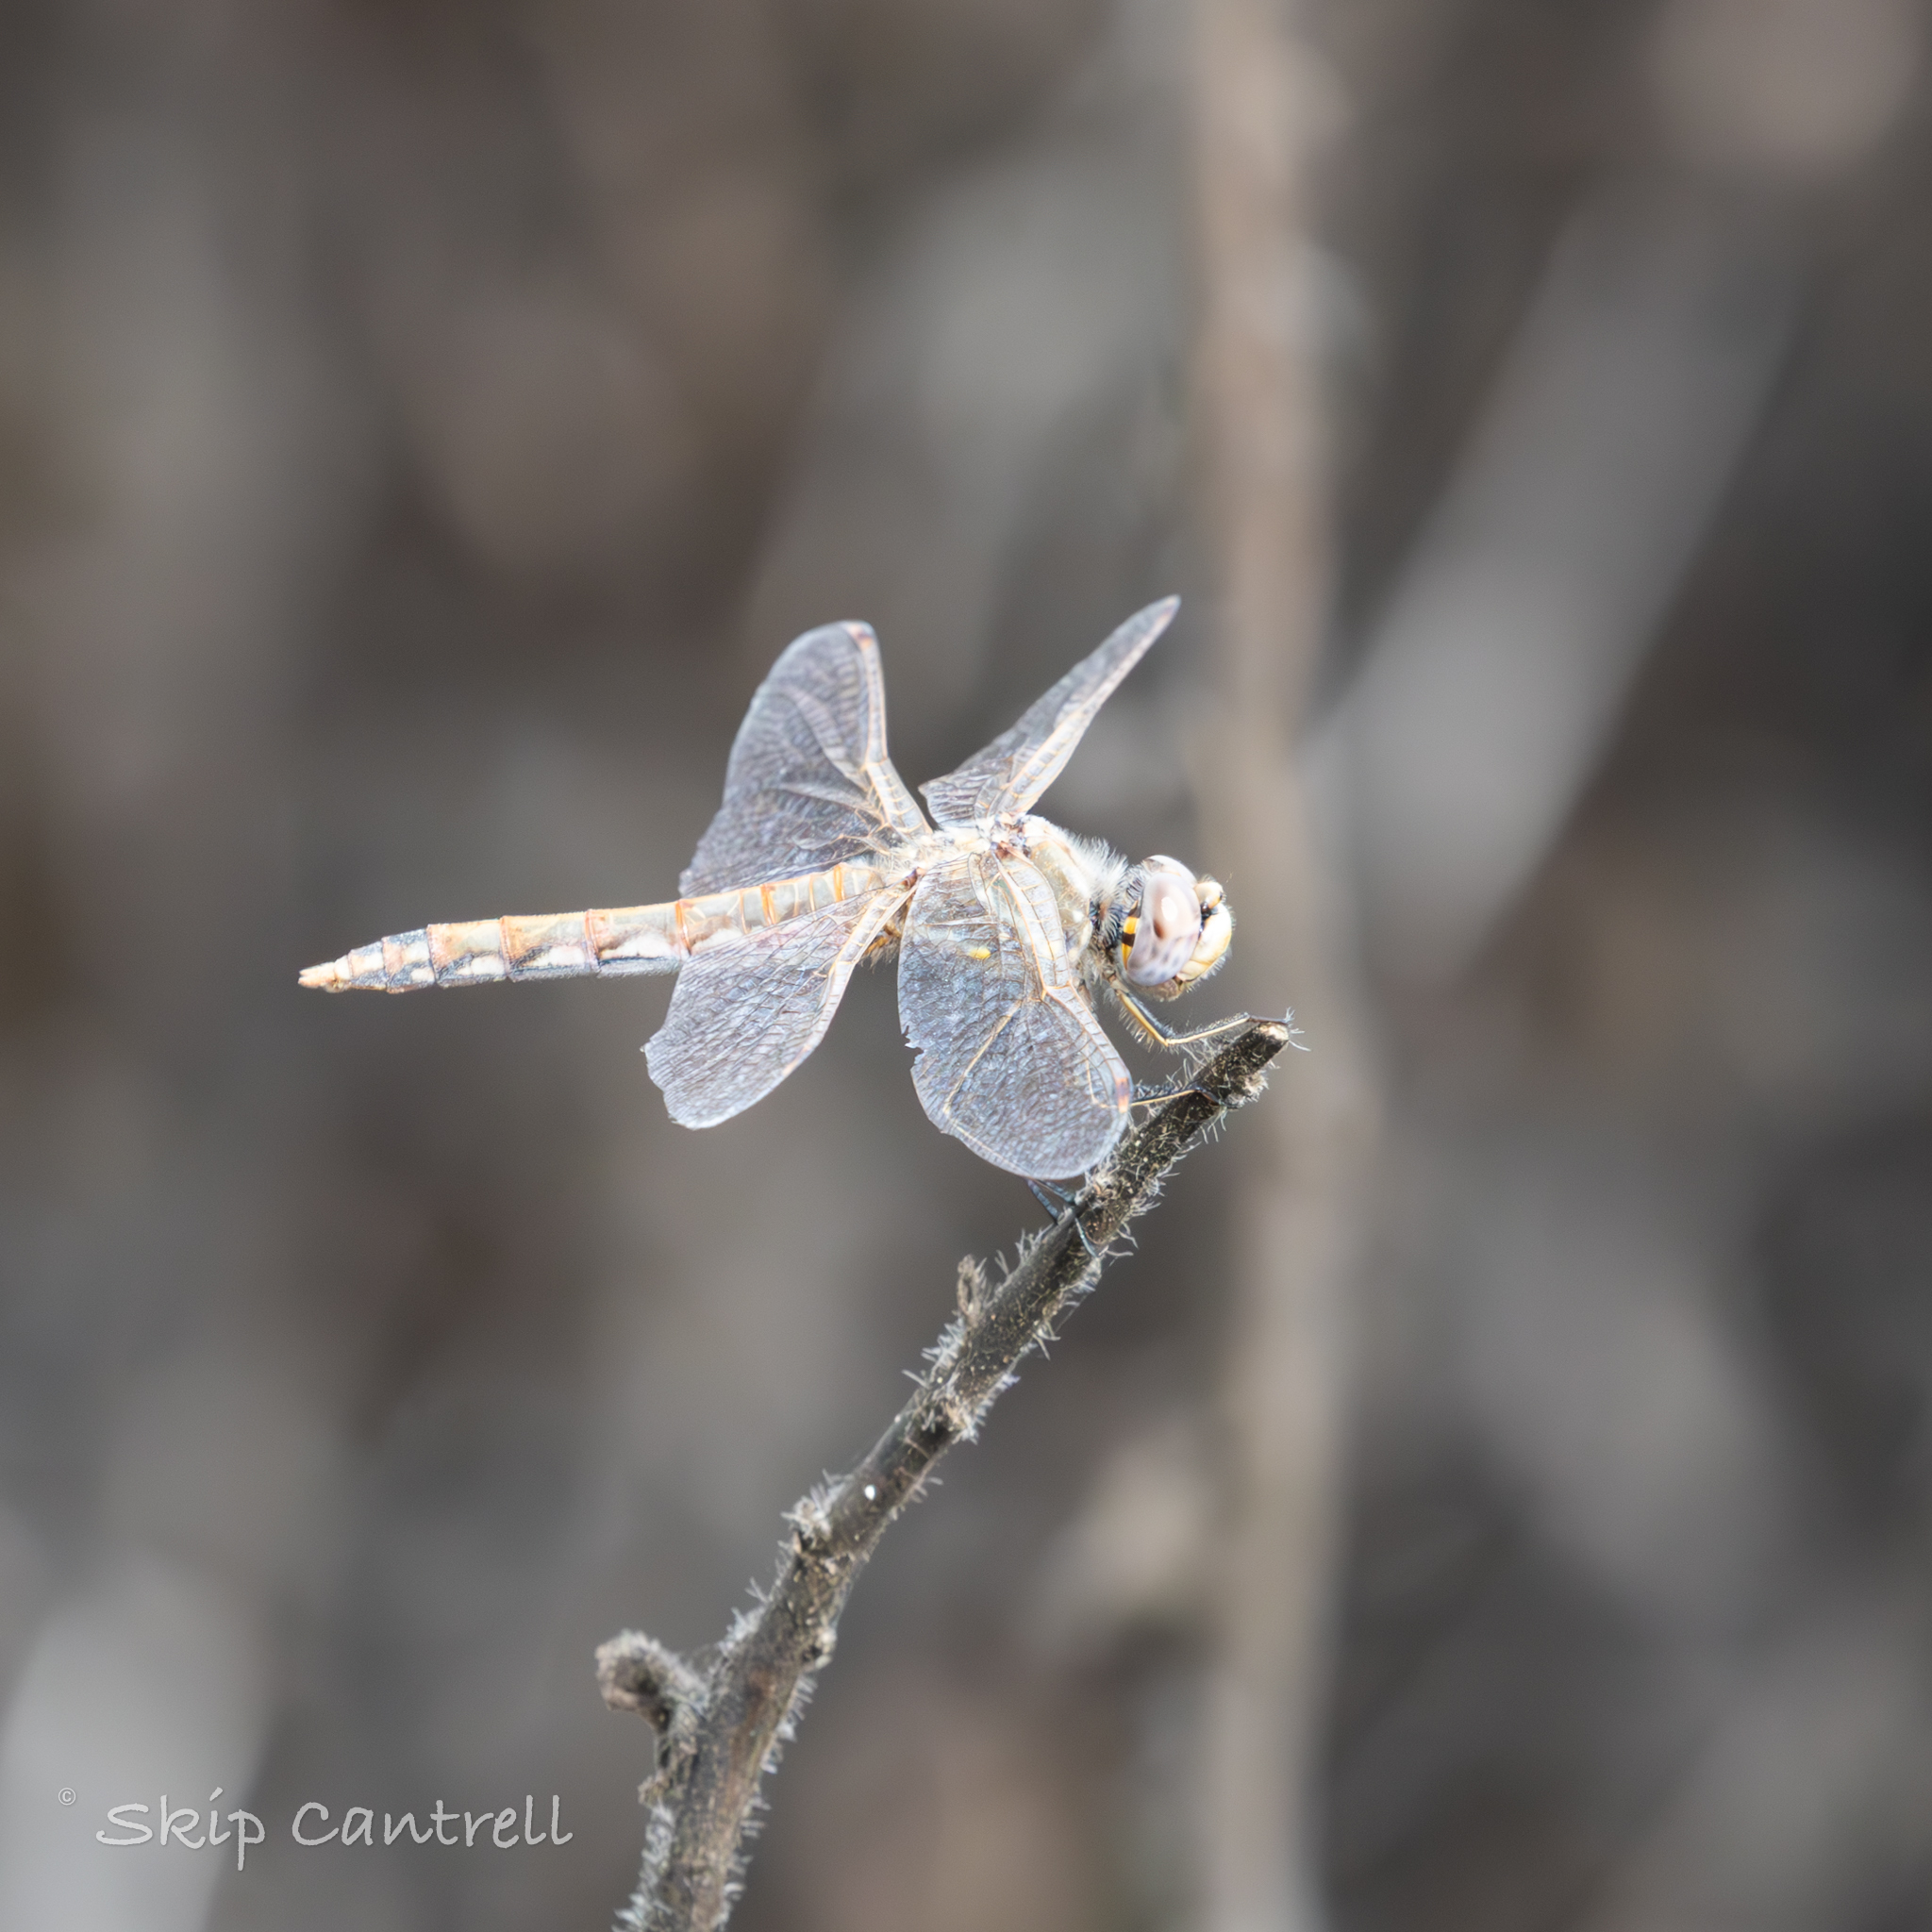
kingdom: Animalia
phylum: Arthropoda
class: Insecta
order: Odonata
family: Libellulidae
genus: Sympetrum
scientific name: Sympetrum corruptum
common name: Variegated meadowhawk
